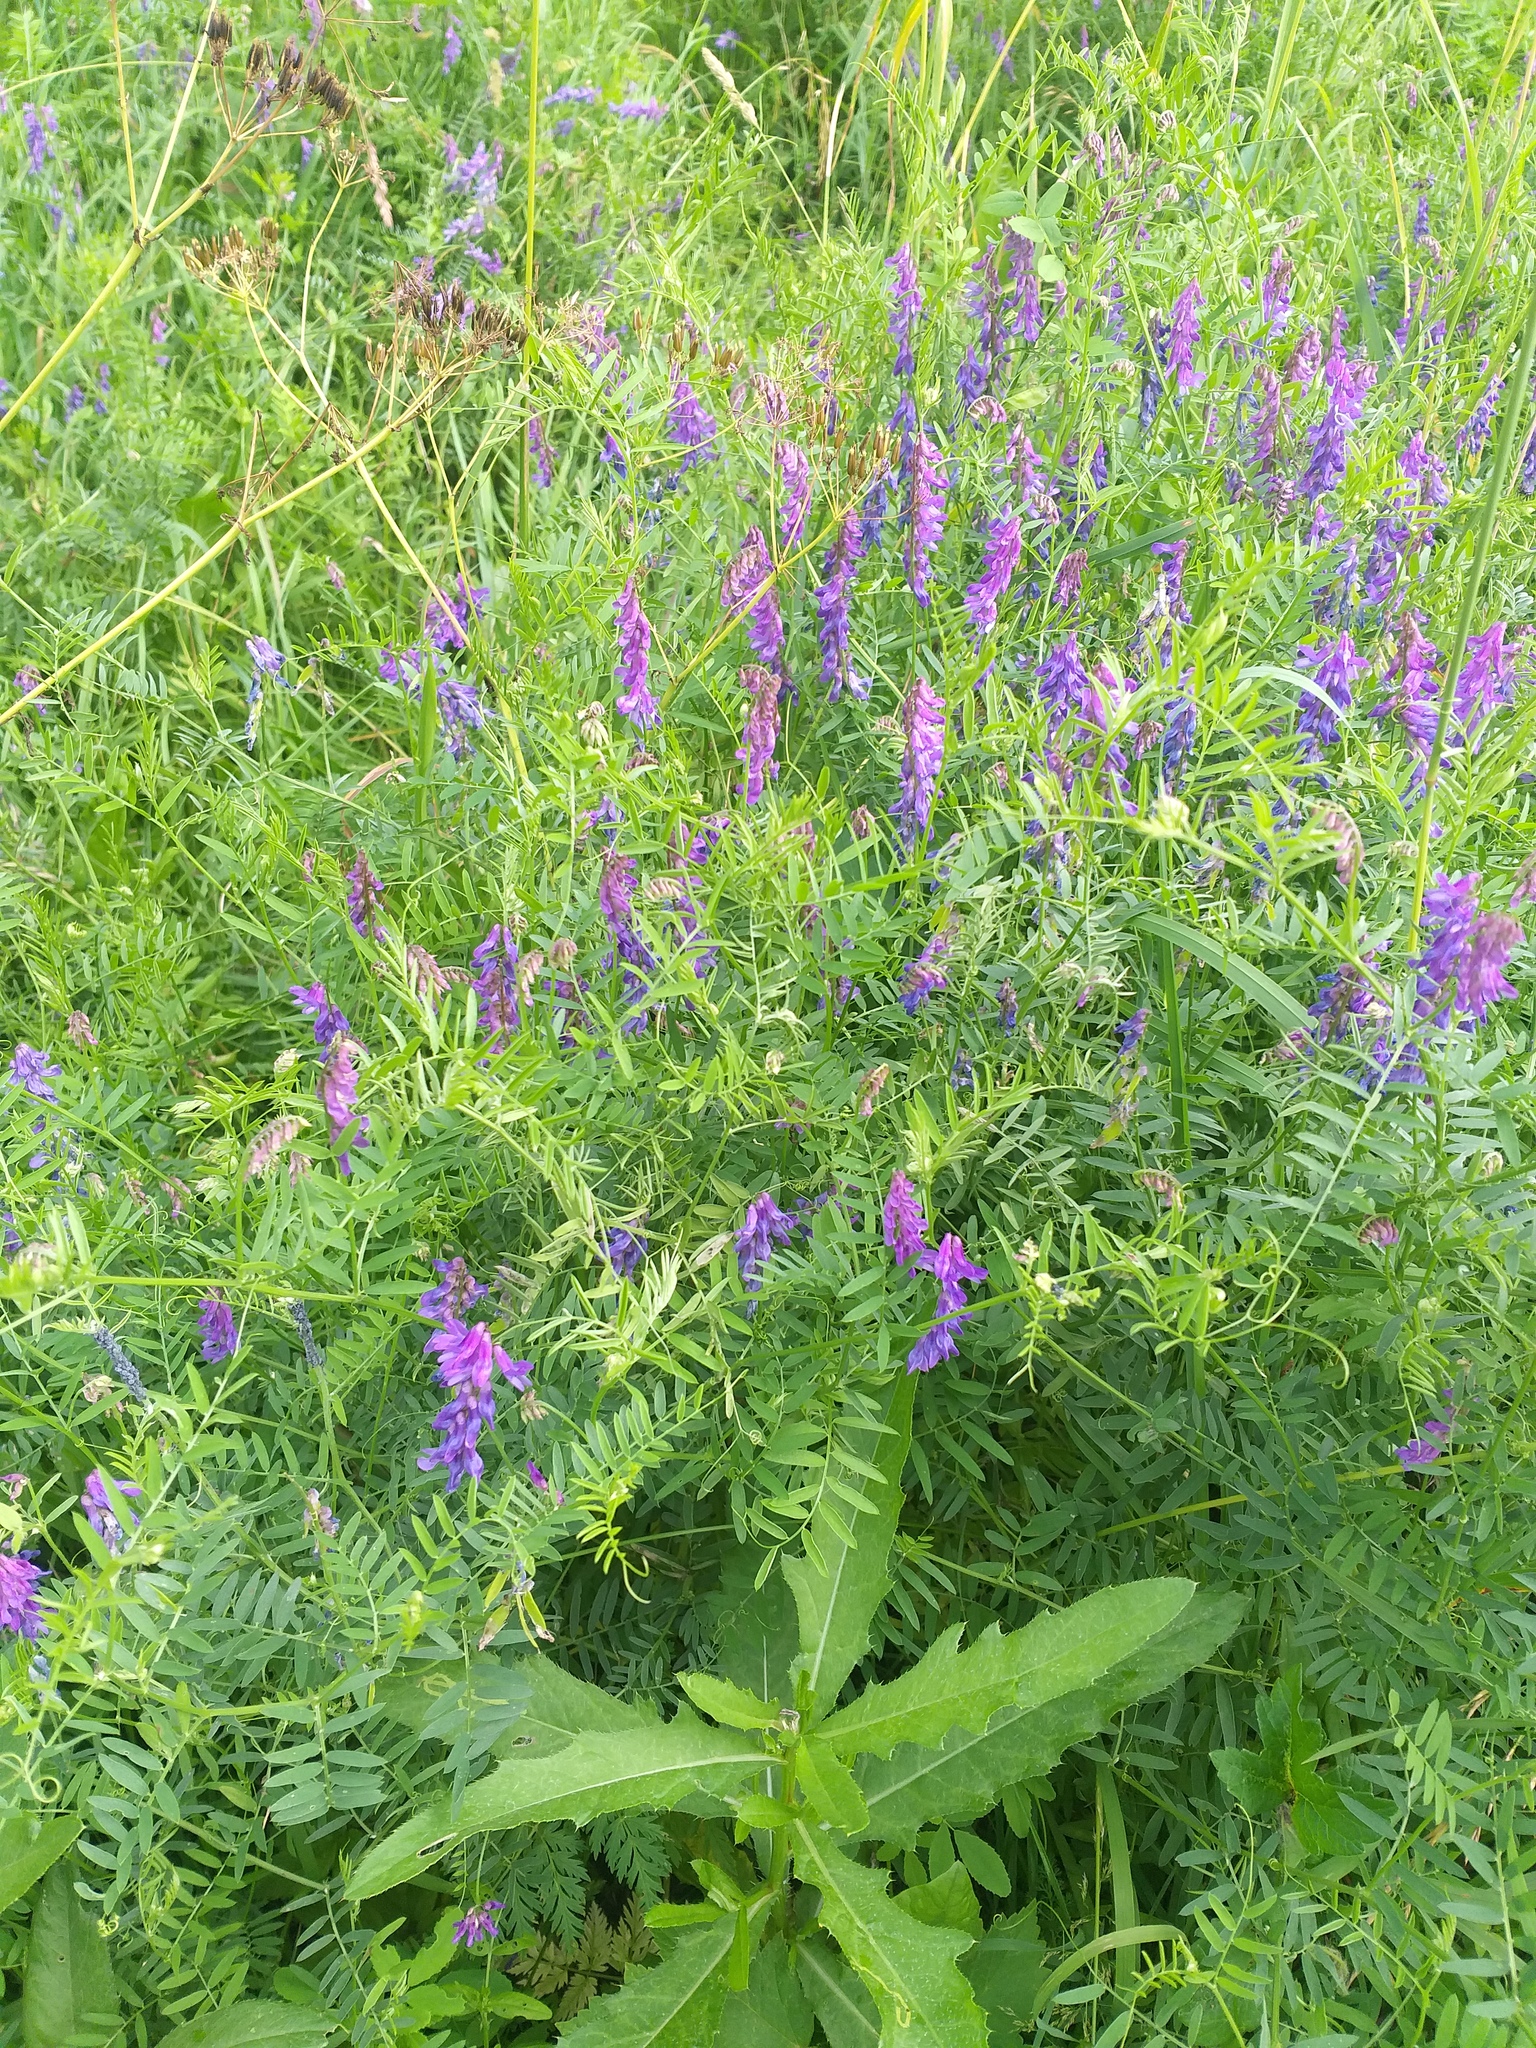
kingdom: Plantae
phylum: Tracheophyta
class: Magnoliopsida
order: Fabales
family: Fabaceae
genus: Vicia
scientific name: Vicia cracca
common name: Bird vetch
